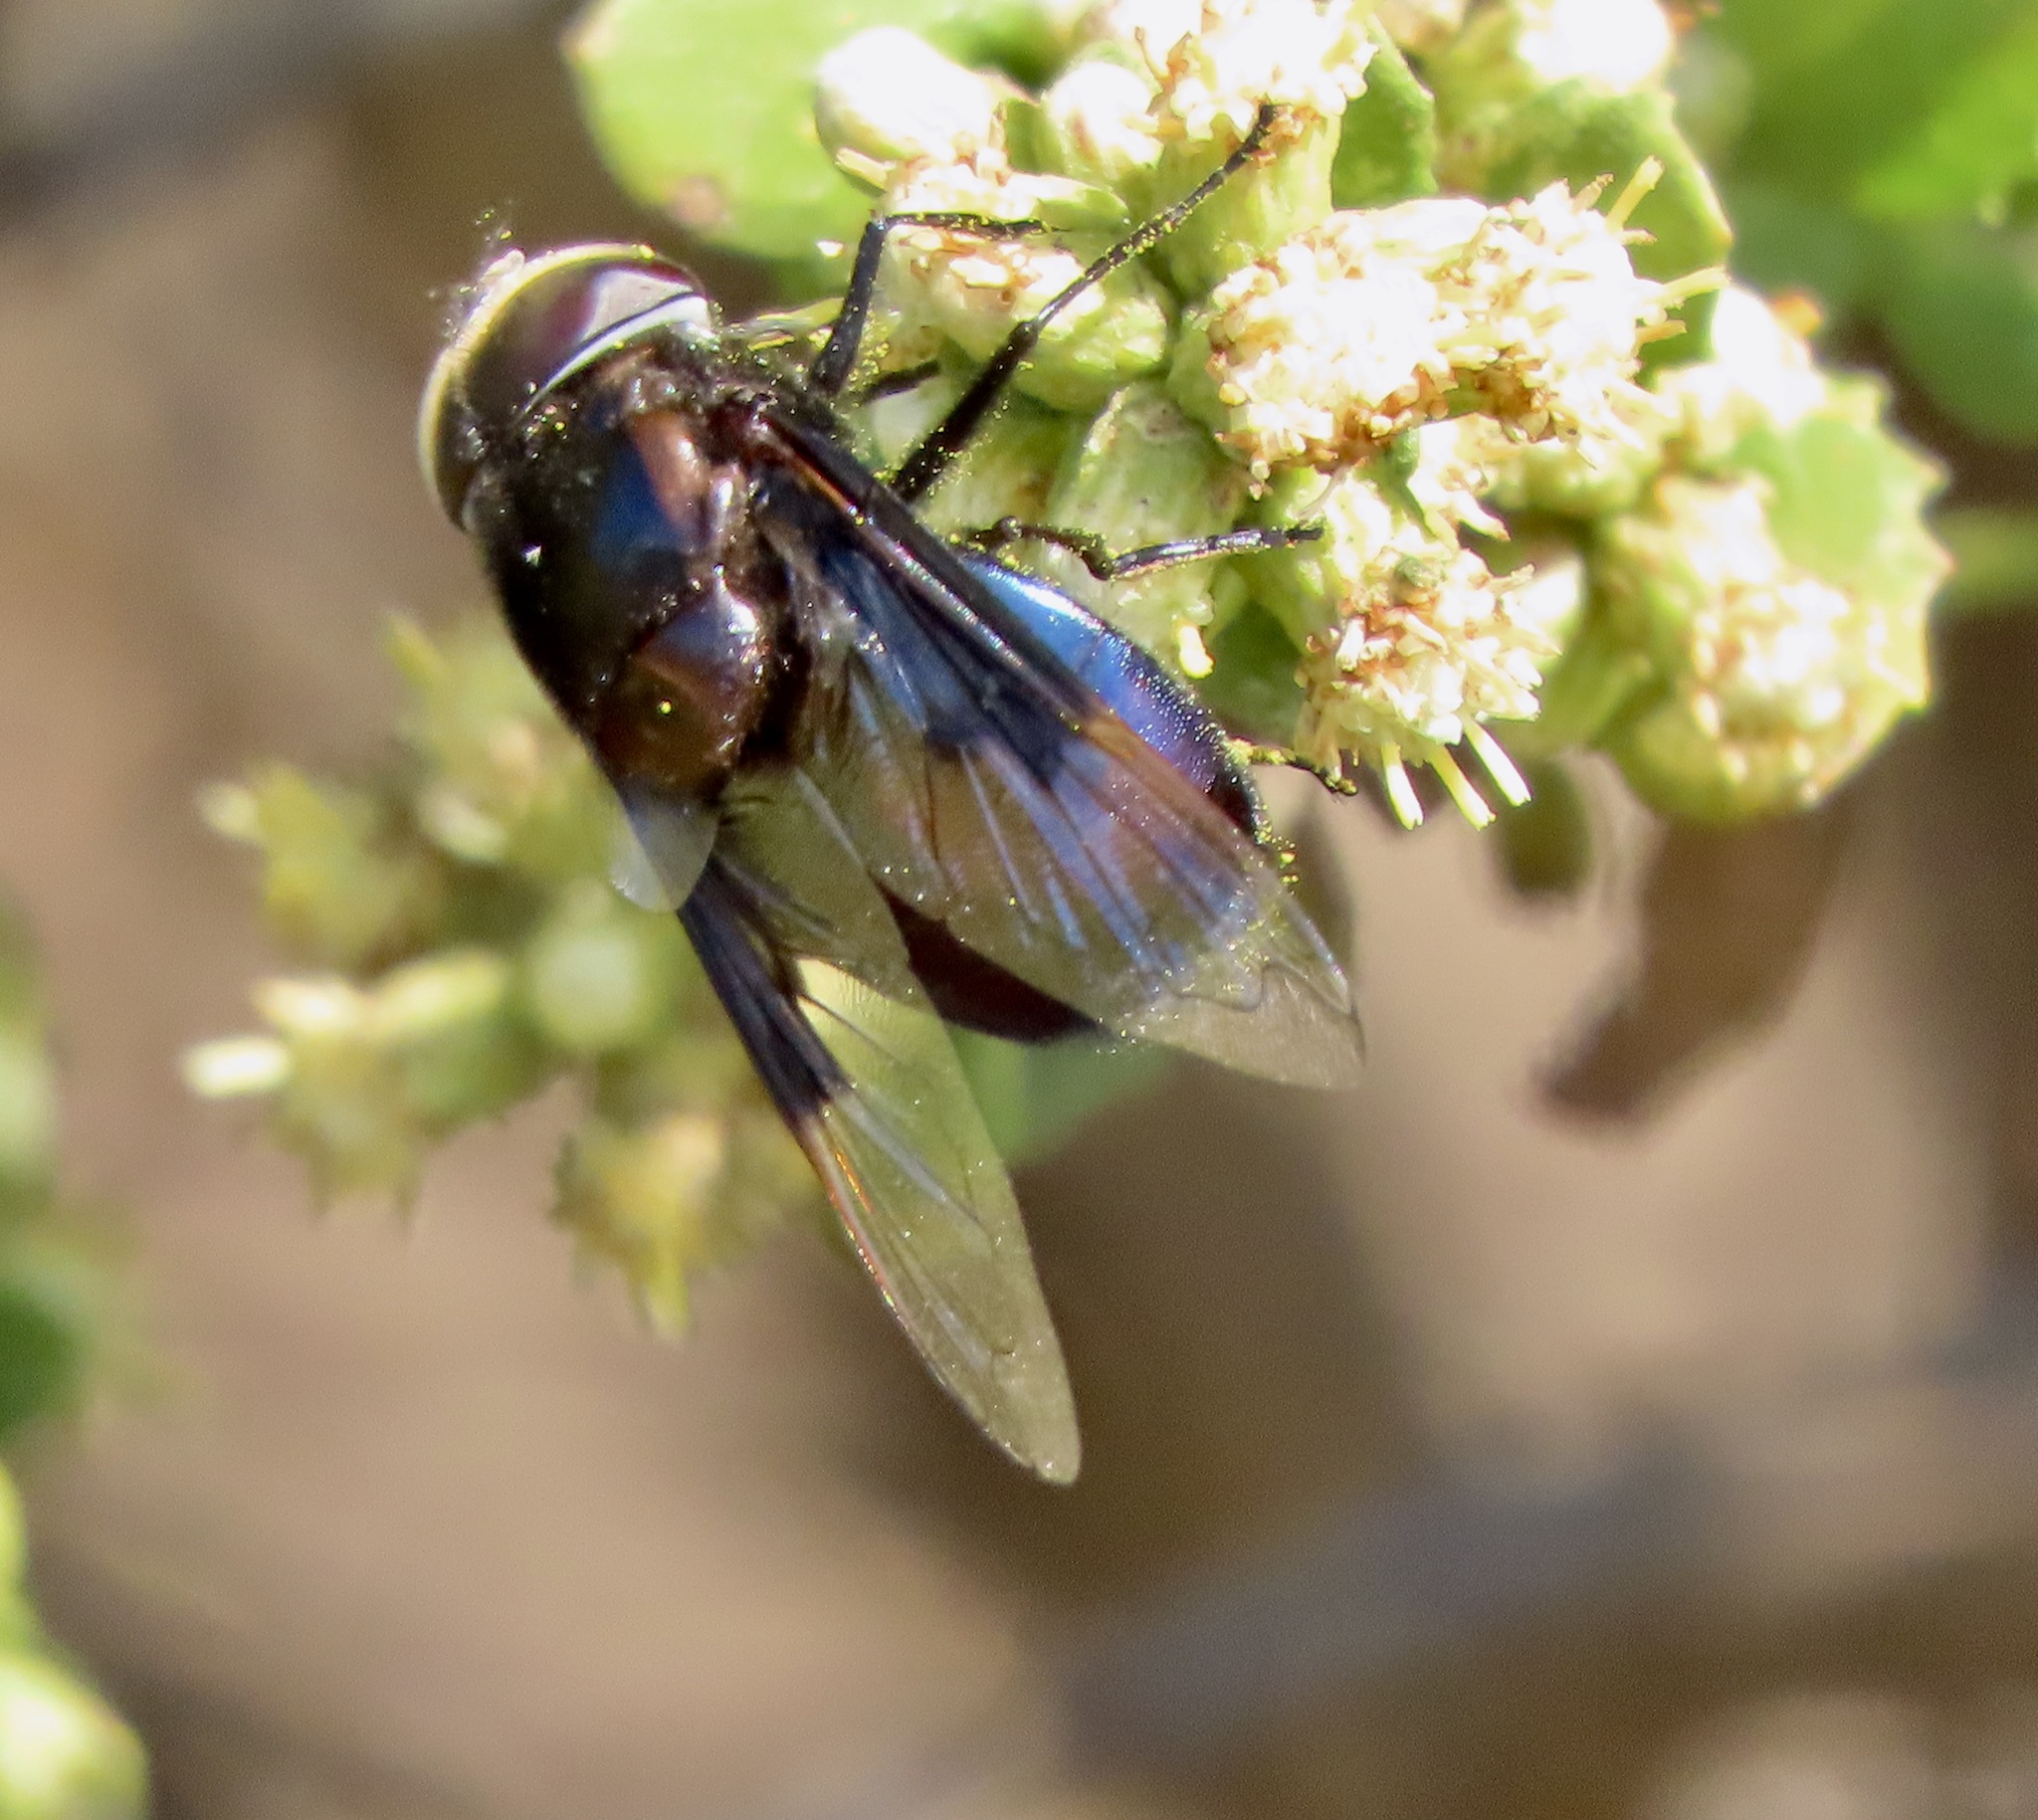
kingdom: Animalia
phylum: Arthropoda
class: Insecta
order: Diptera
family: Syrphidae
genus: Copestylum
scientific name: Copestylum violaceum
